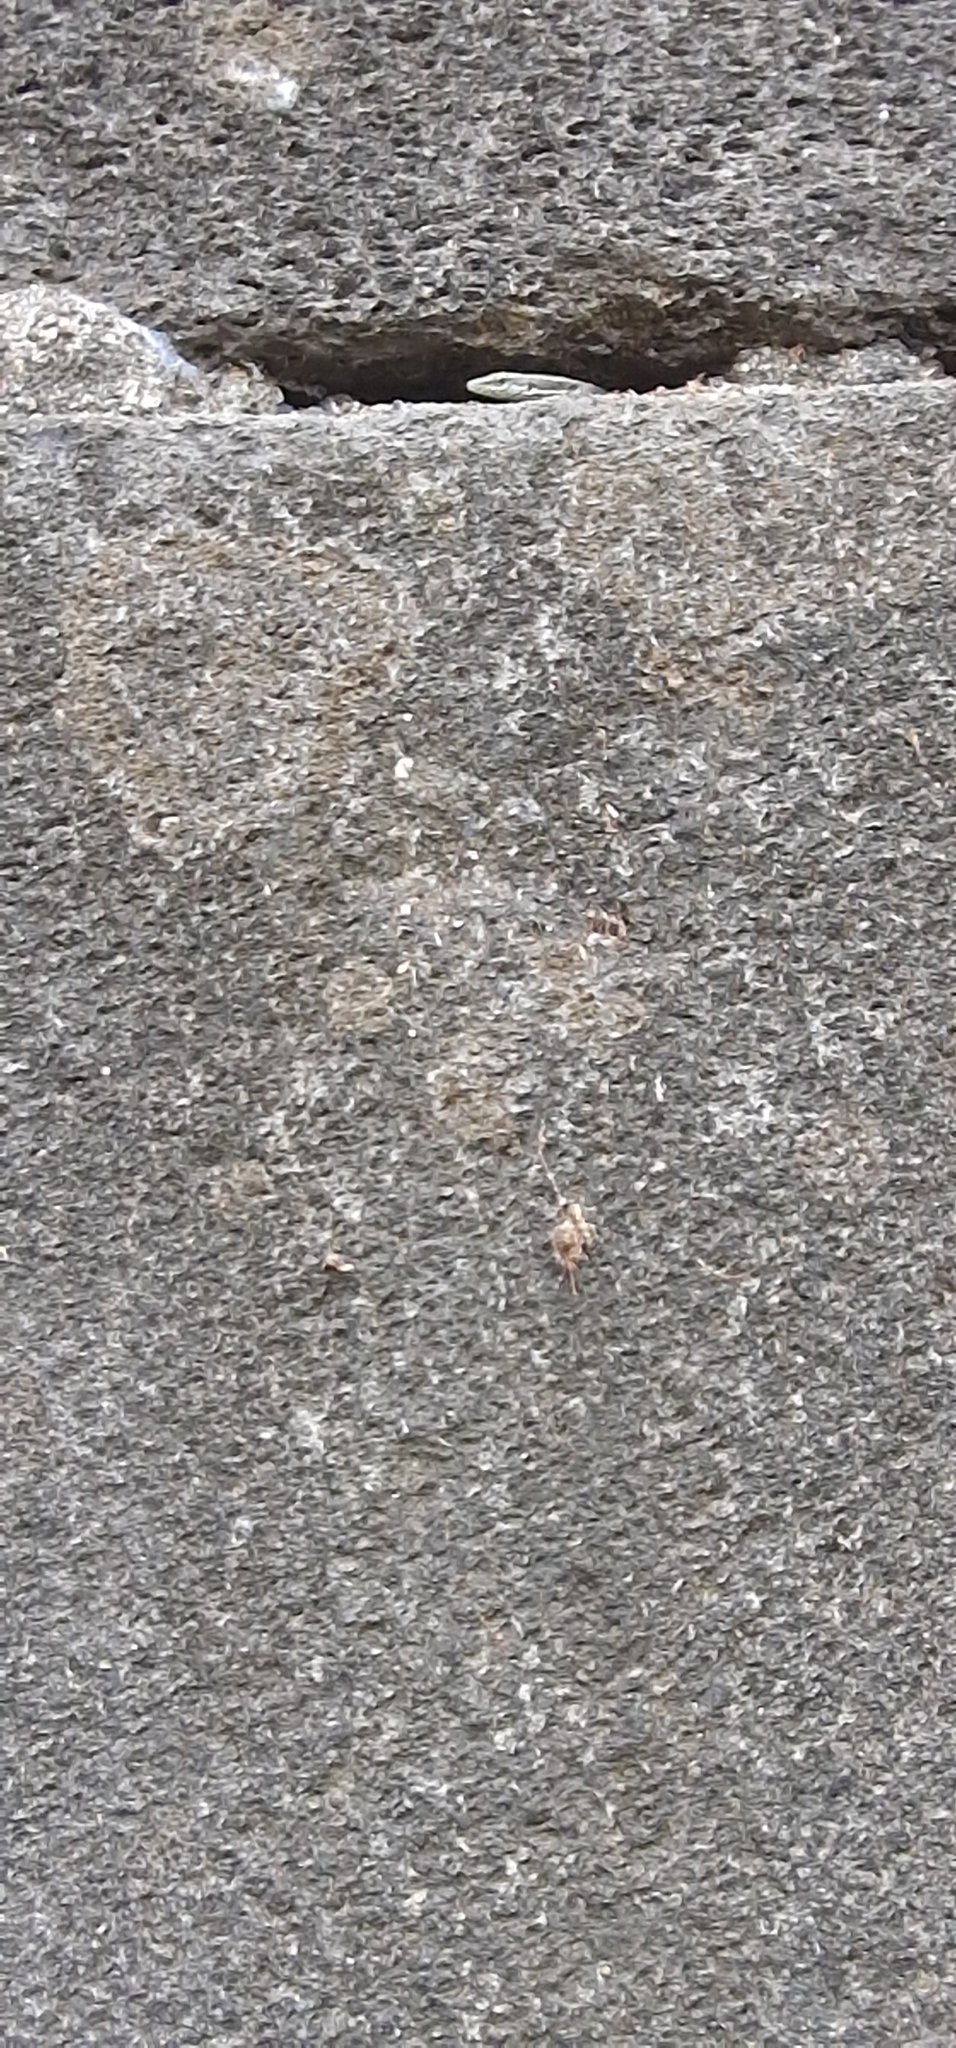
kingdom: Animalia
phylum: Chordata
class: Squamata
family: Lacertidae
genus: Teira
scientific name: Teira dugesii
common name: Madeira lizard
